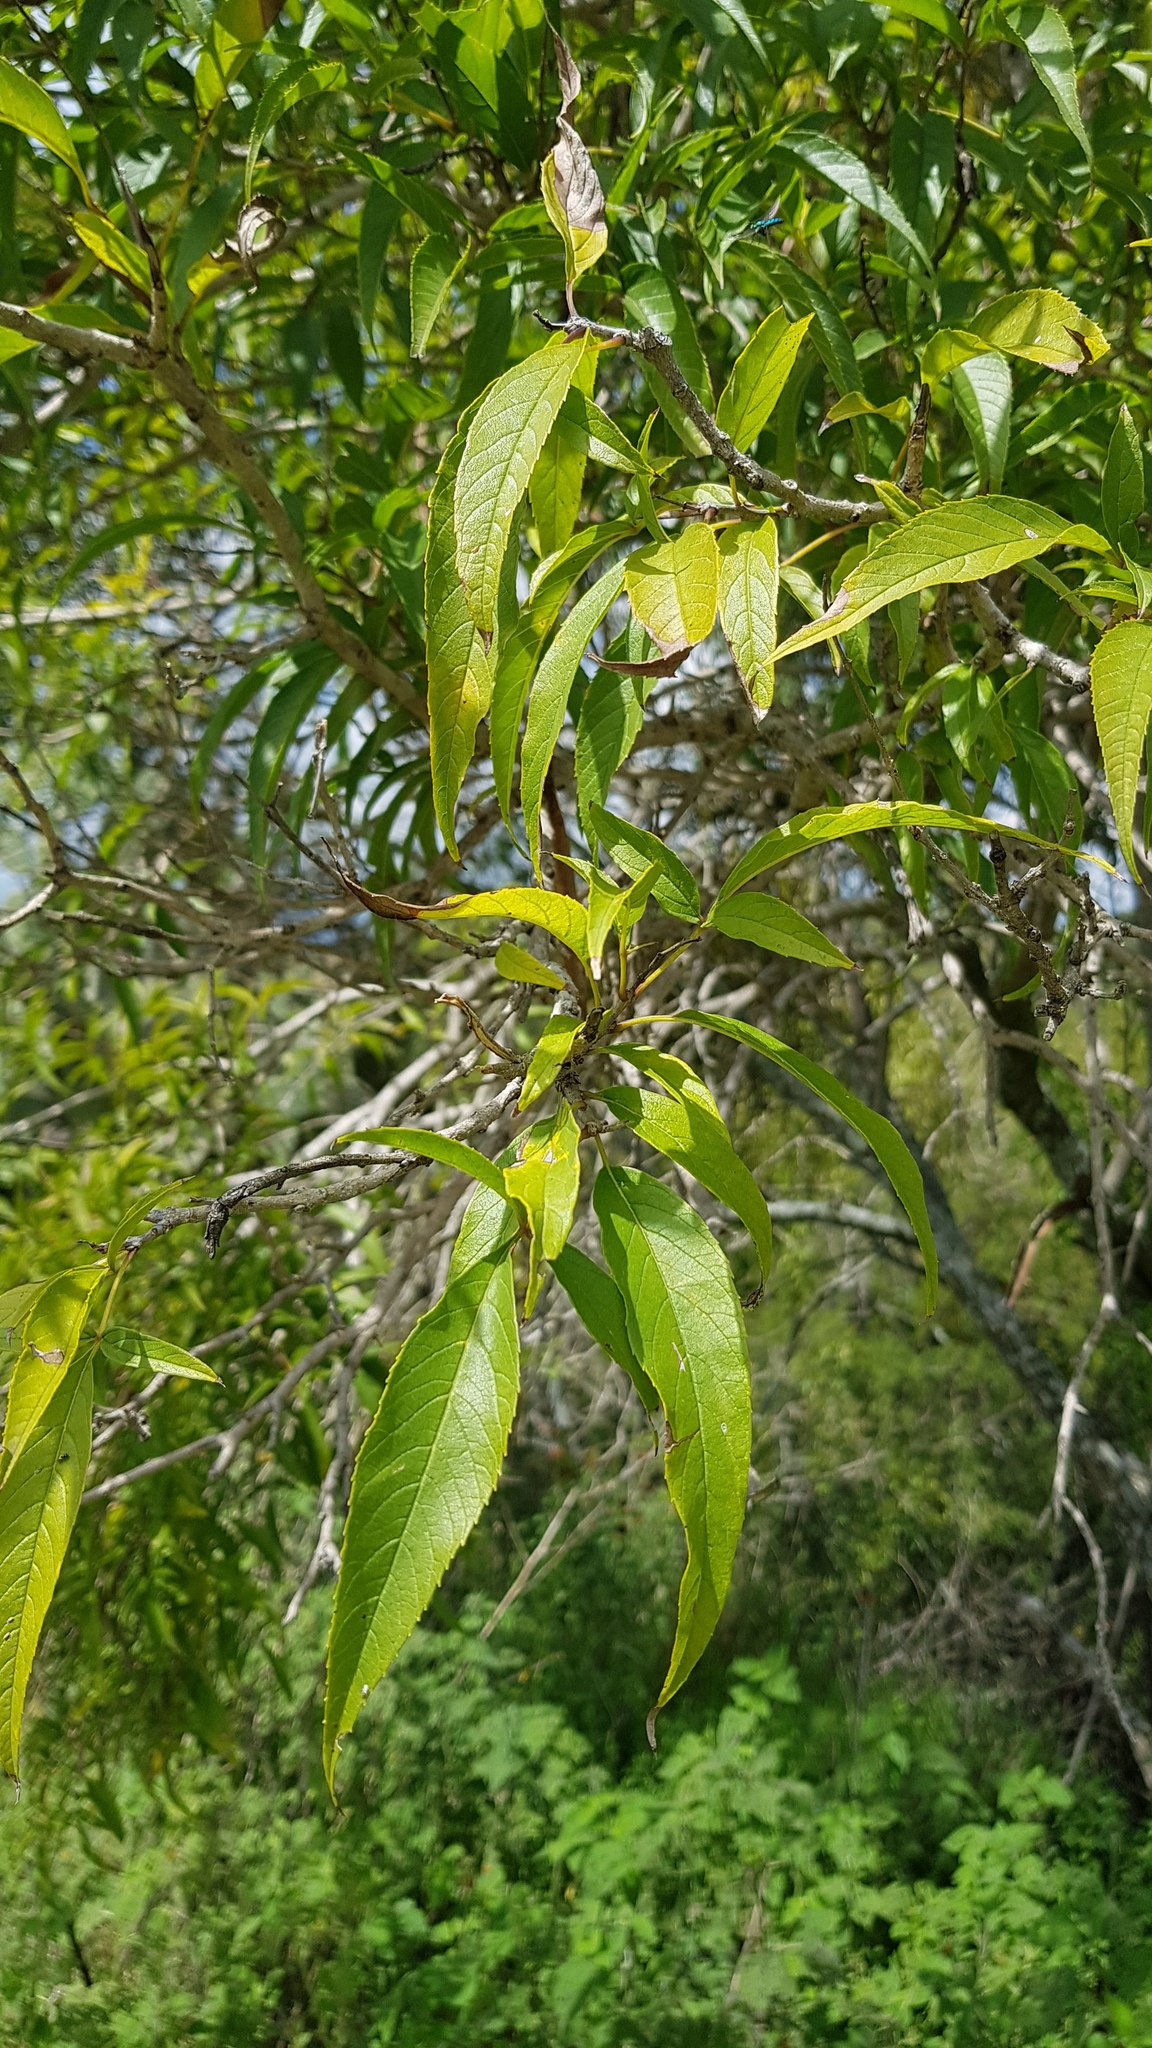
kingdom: Plantae
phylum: Tracheophyta
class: Magnoliopsida
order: Lamiales
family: Bignoniaceae
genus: Tecoma
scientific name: Tecoma stans
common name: Yellow trumpetbush
